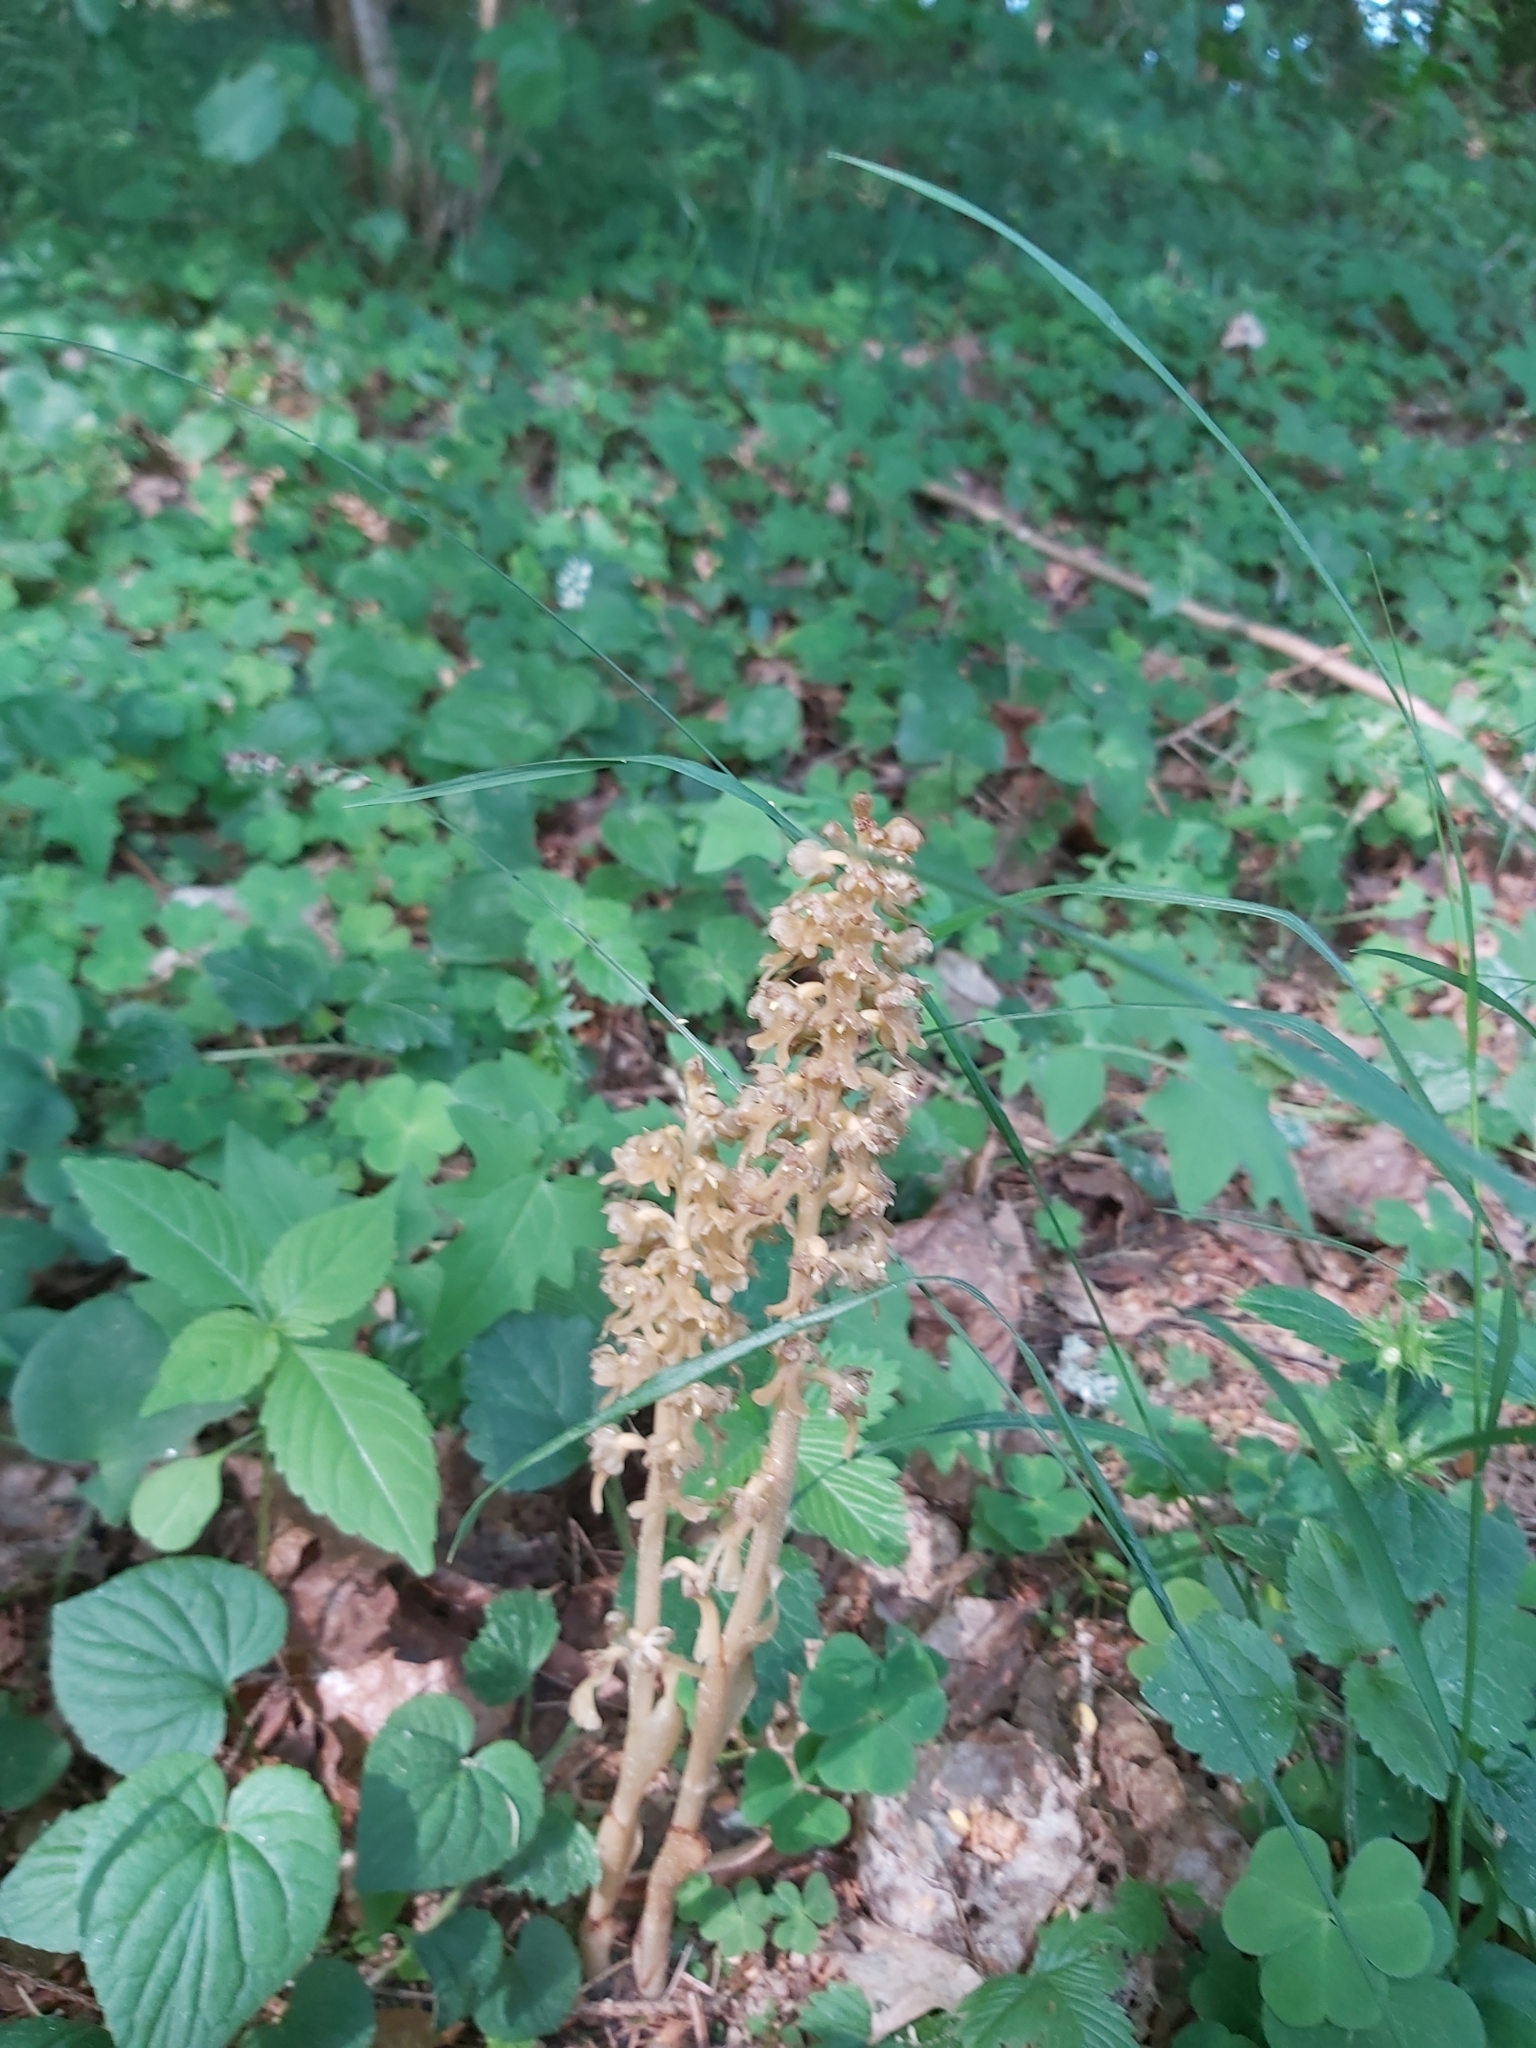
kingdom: Plantae
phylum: Tracheophyta
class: Liliopsida
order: Asparagales
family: Orchidaceae
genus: Neottia
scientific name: Neottia nidus-avis
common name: Bird's-nest orchid
